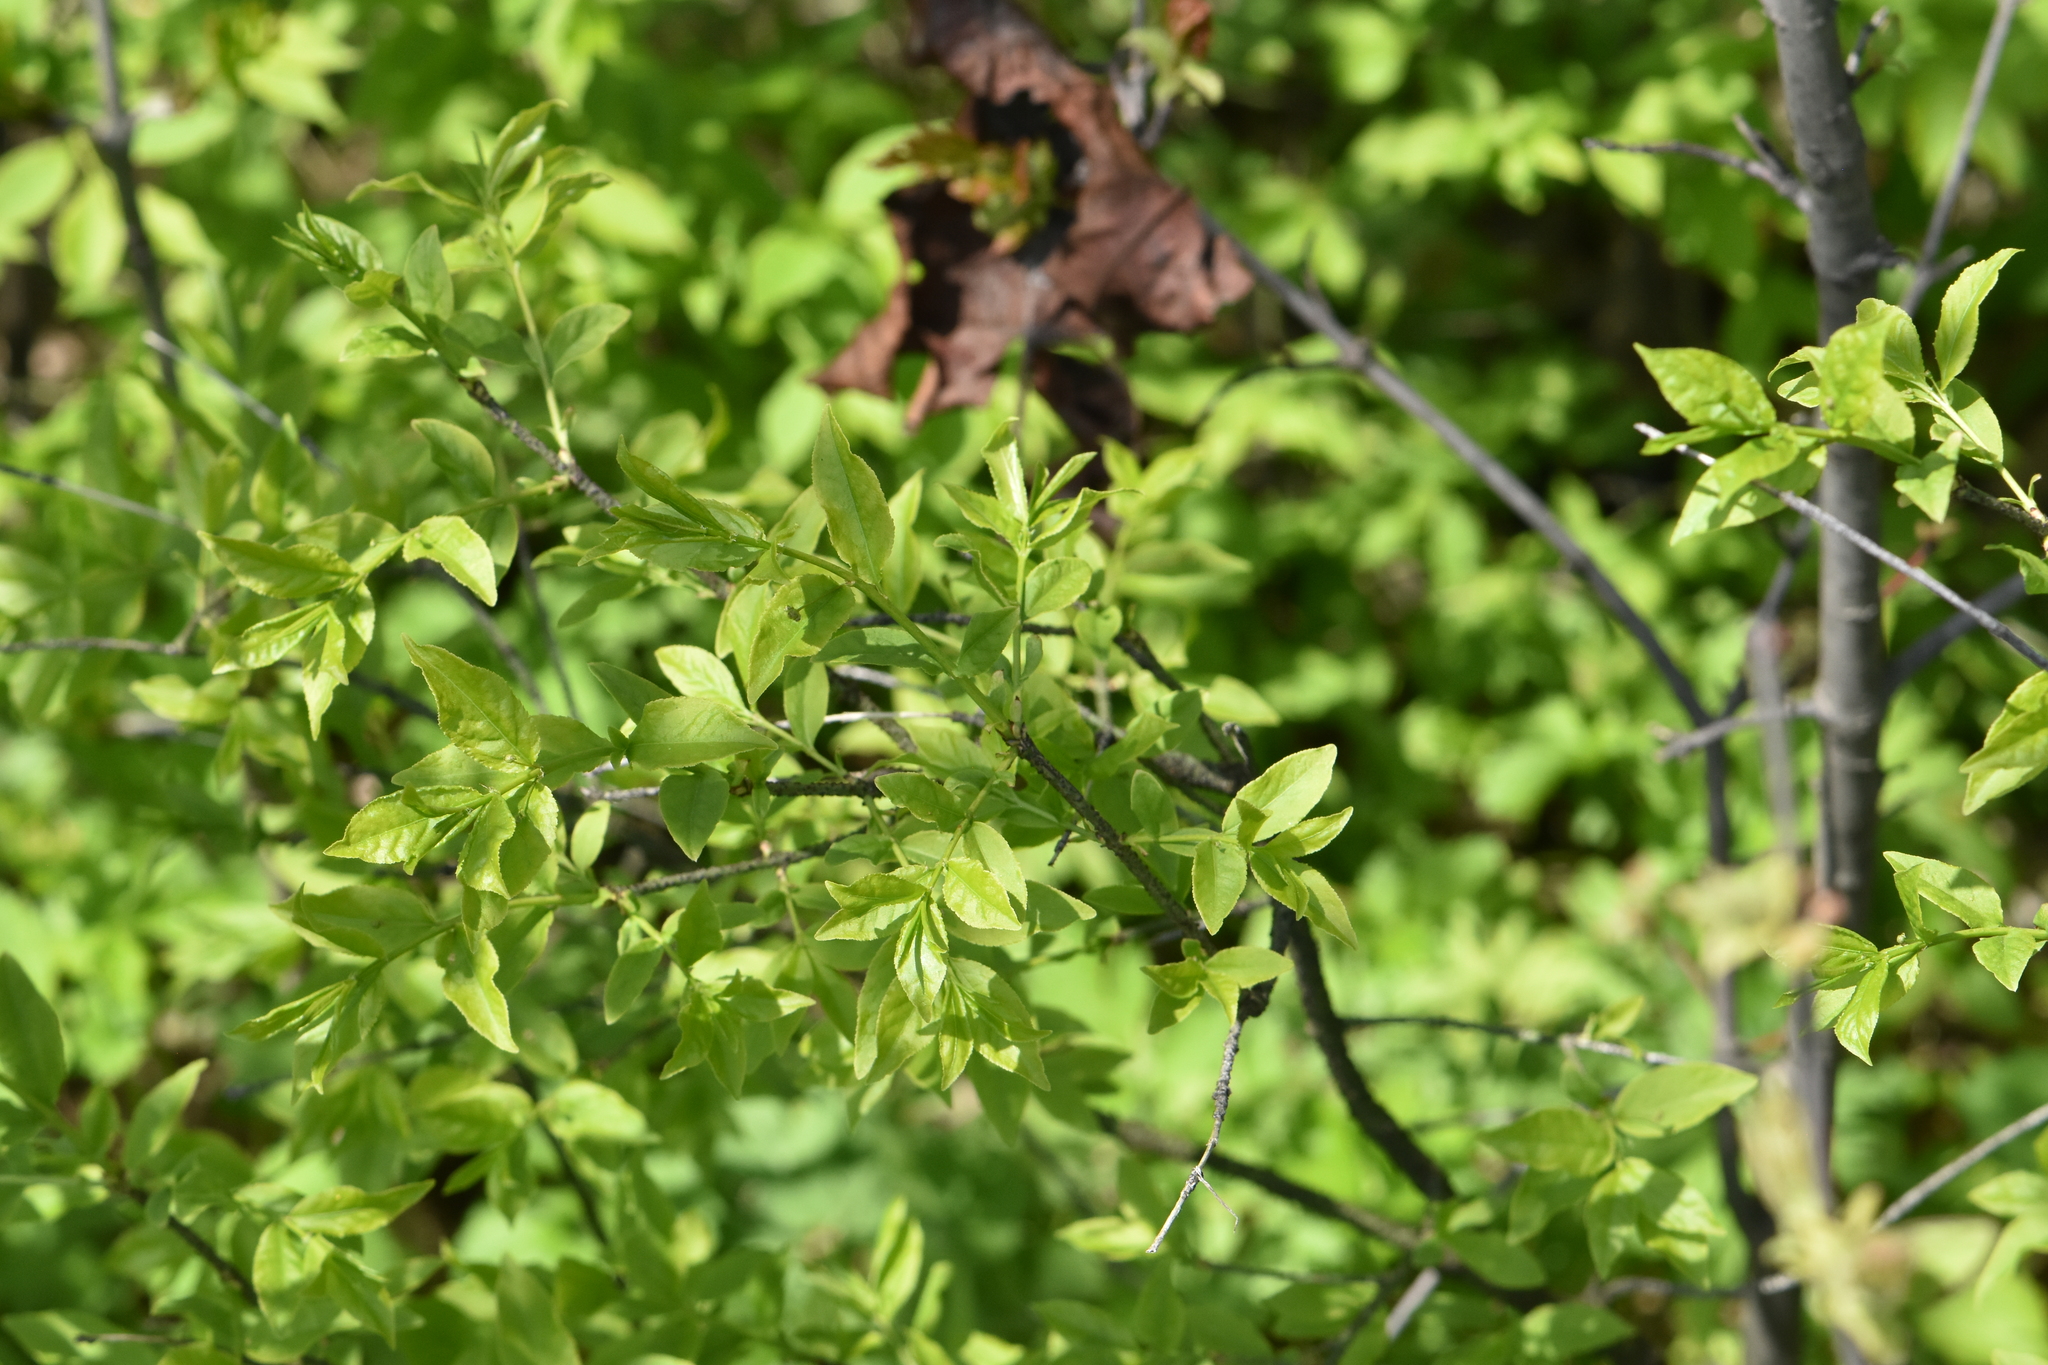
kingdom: Plantae
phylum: Tracheophyta
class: Magnoliopsida
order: Celastrales
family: Celastraceae
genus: Euonymus
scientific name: Euonymus verrucosus
